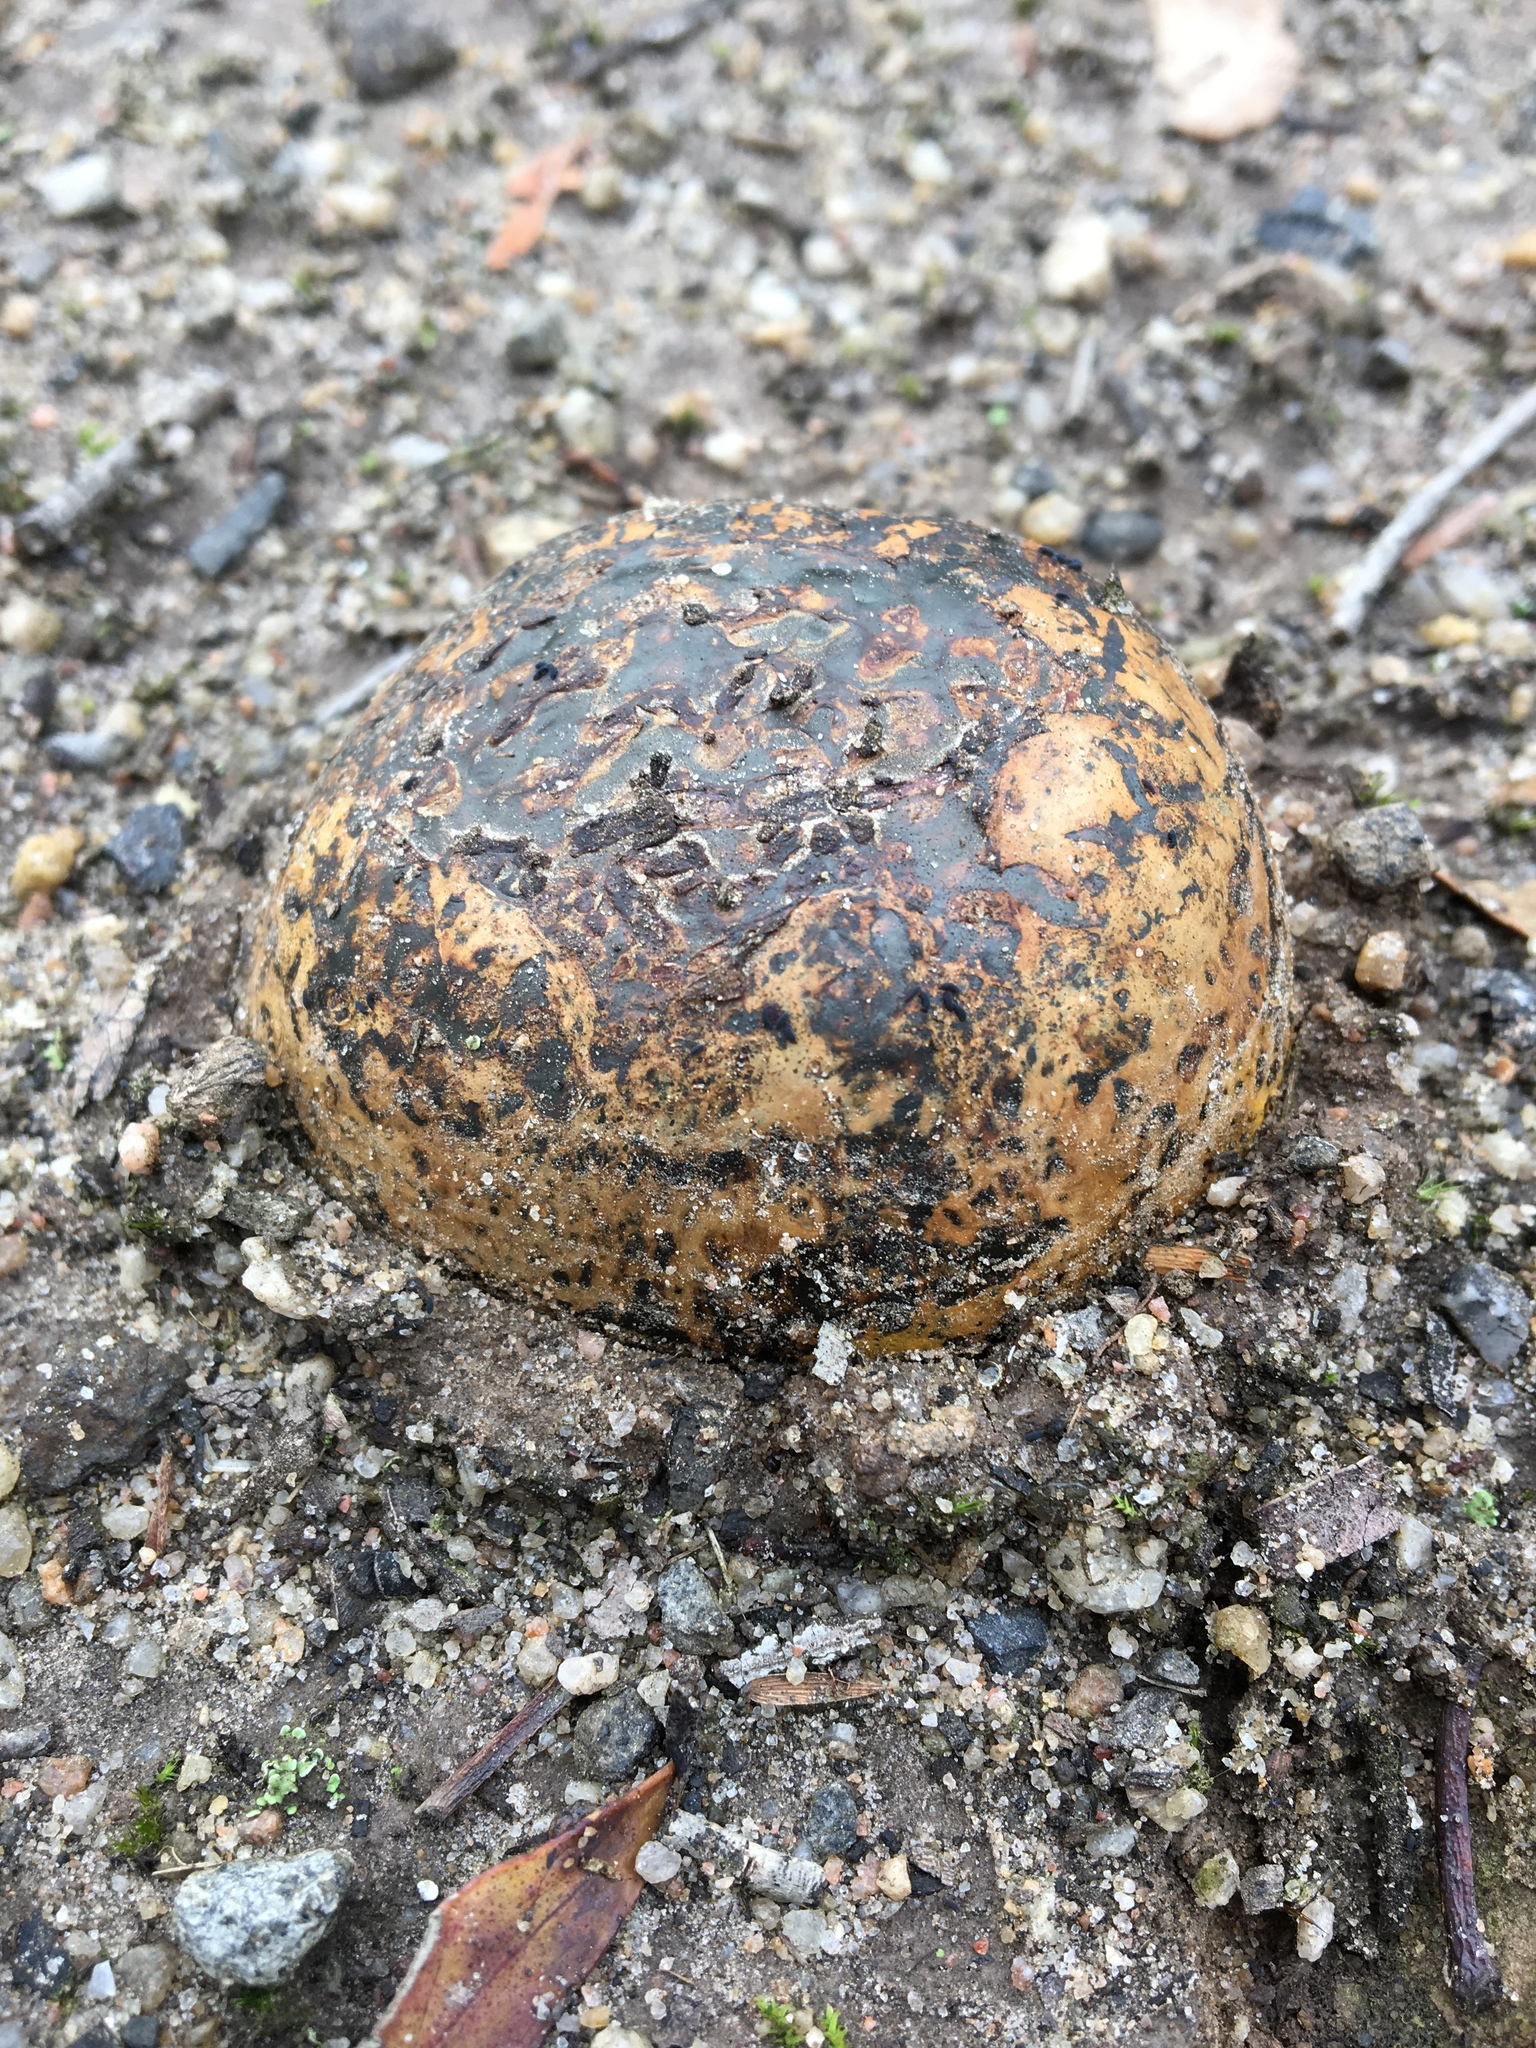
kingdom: Fungi
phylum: Basidiomycota
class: Agaricomycetes
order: Boletales
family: Sclerodermataceae
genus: Pisolithus
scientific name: Pisolithus arhizus
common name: Dyeball
